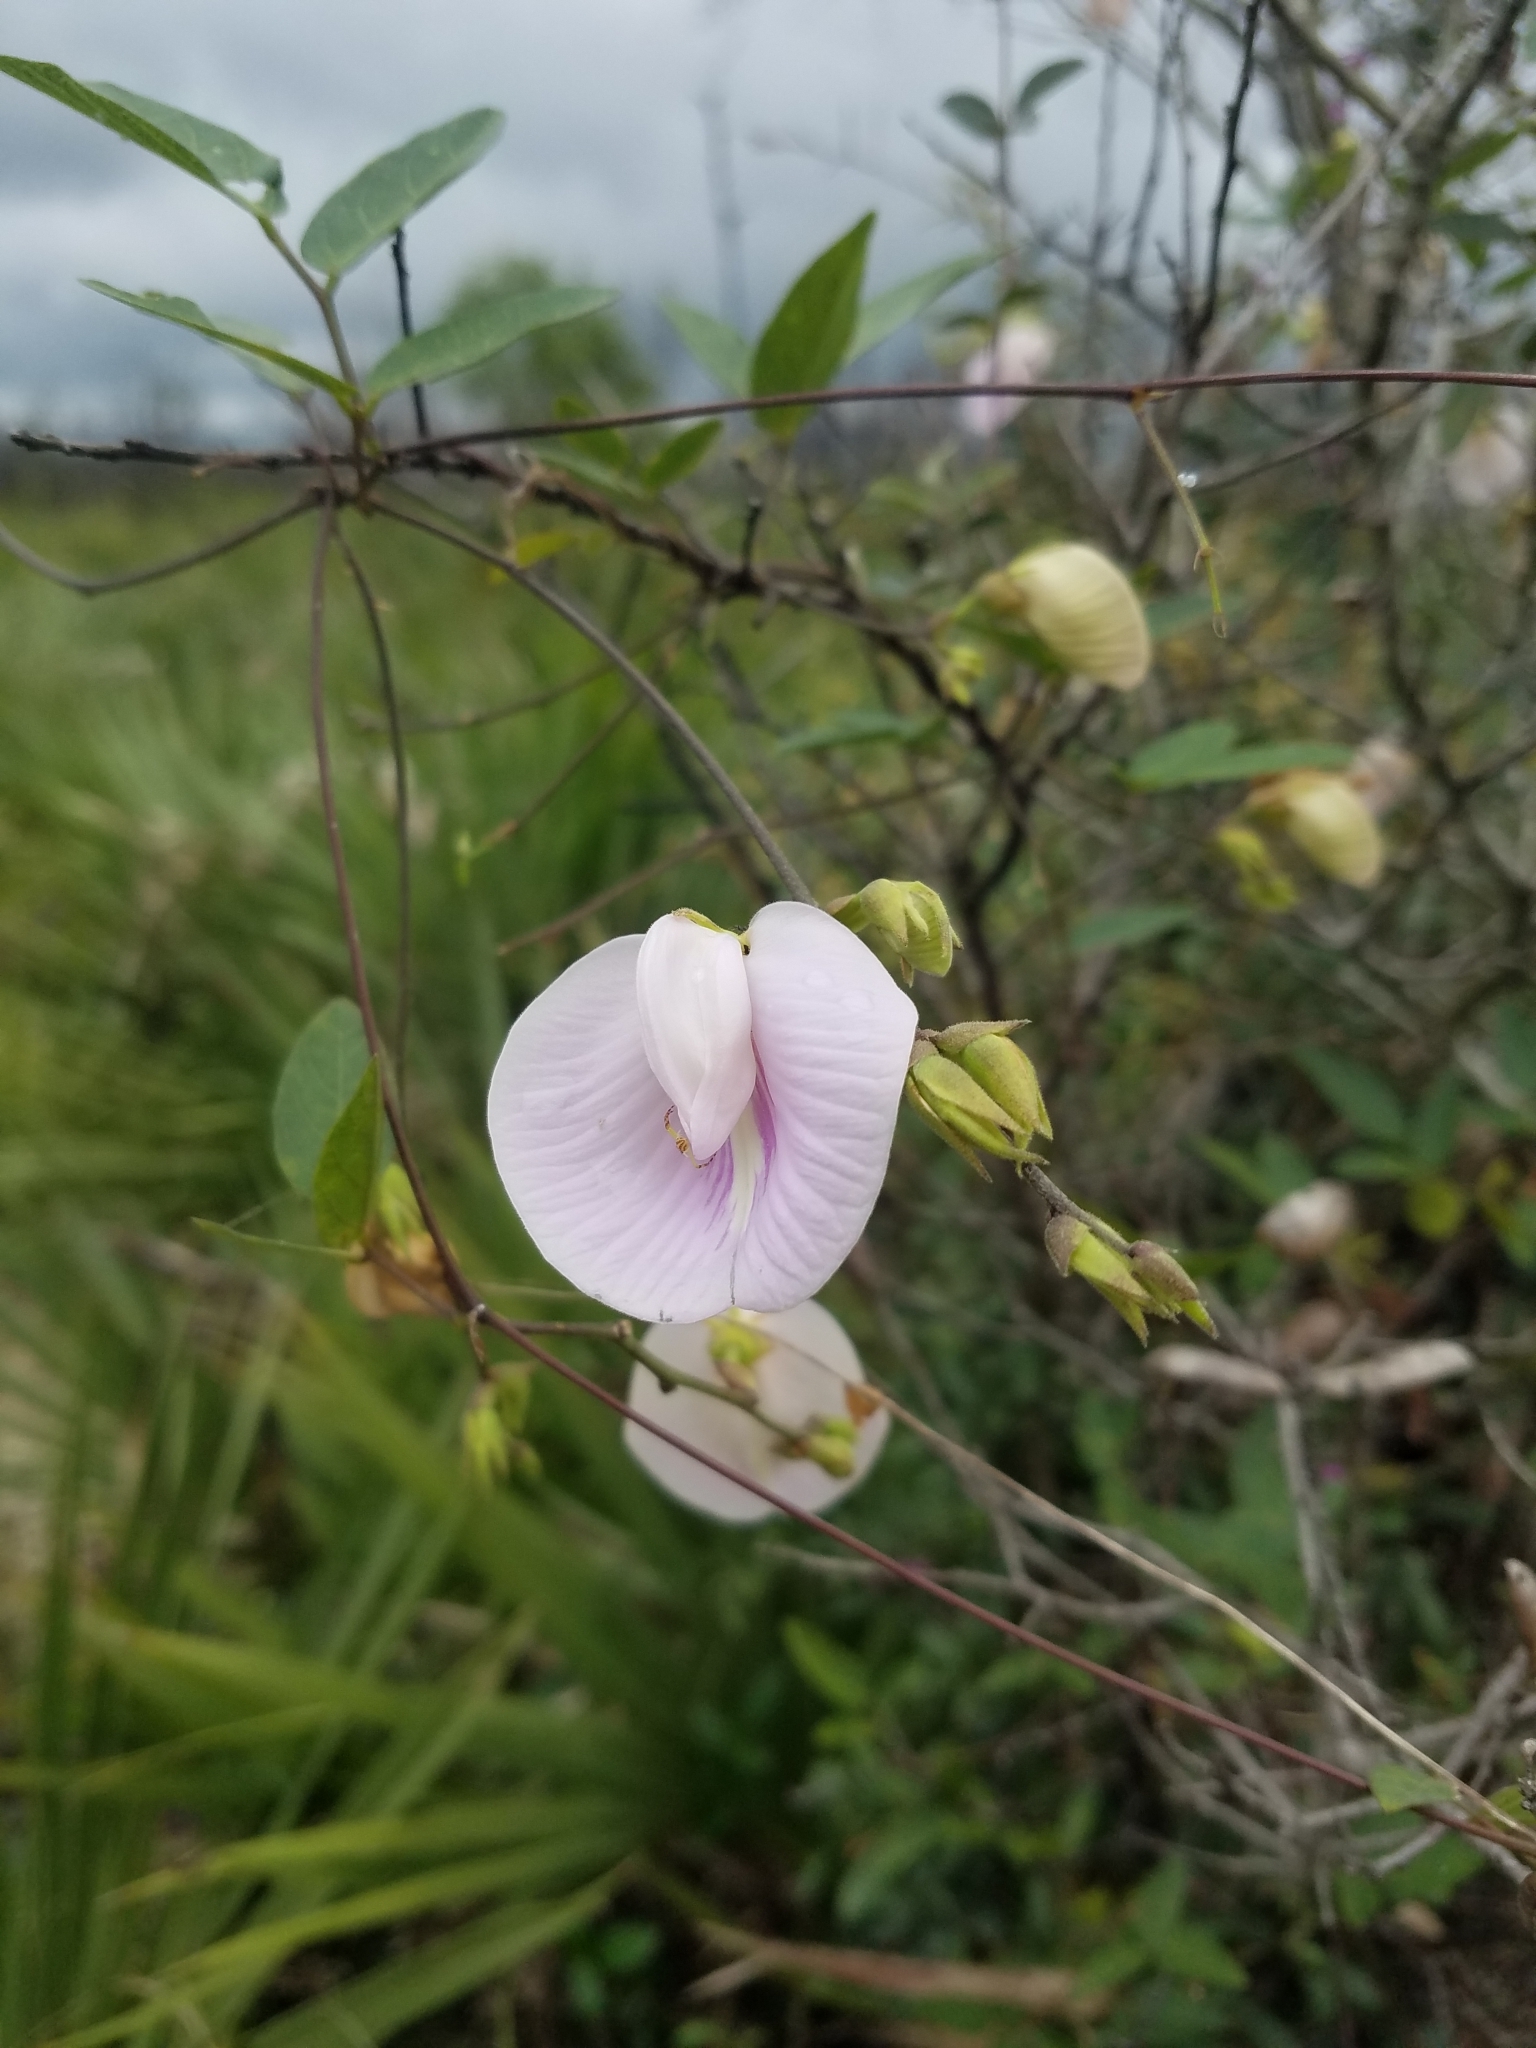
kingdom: Plantae
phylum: Tracheophyta
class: Magnoliopsida
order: Fabales
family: Fabaceae
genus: Centrosema
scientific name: Centrosema arenicola
